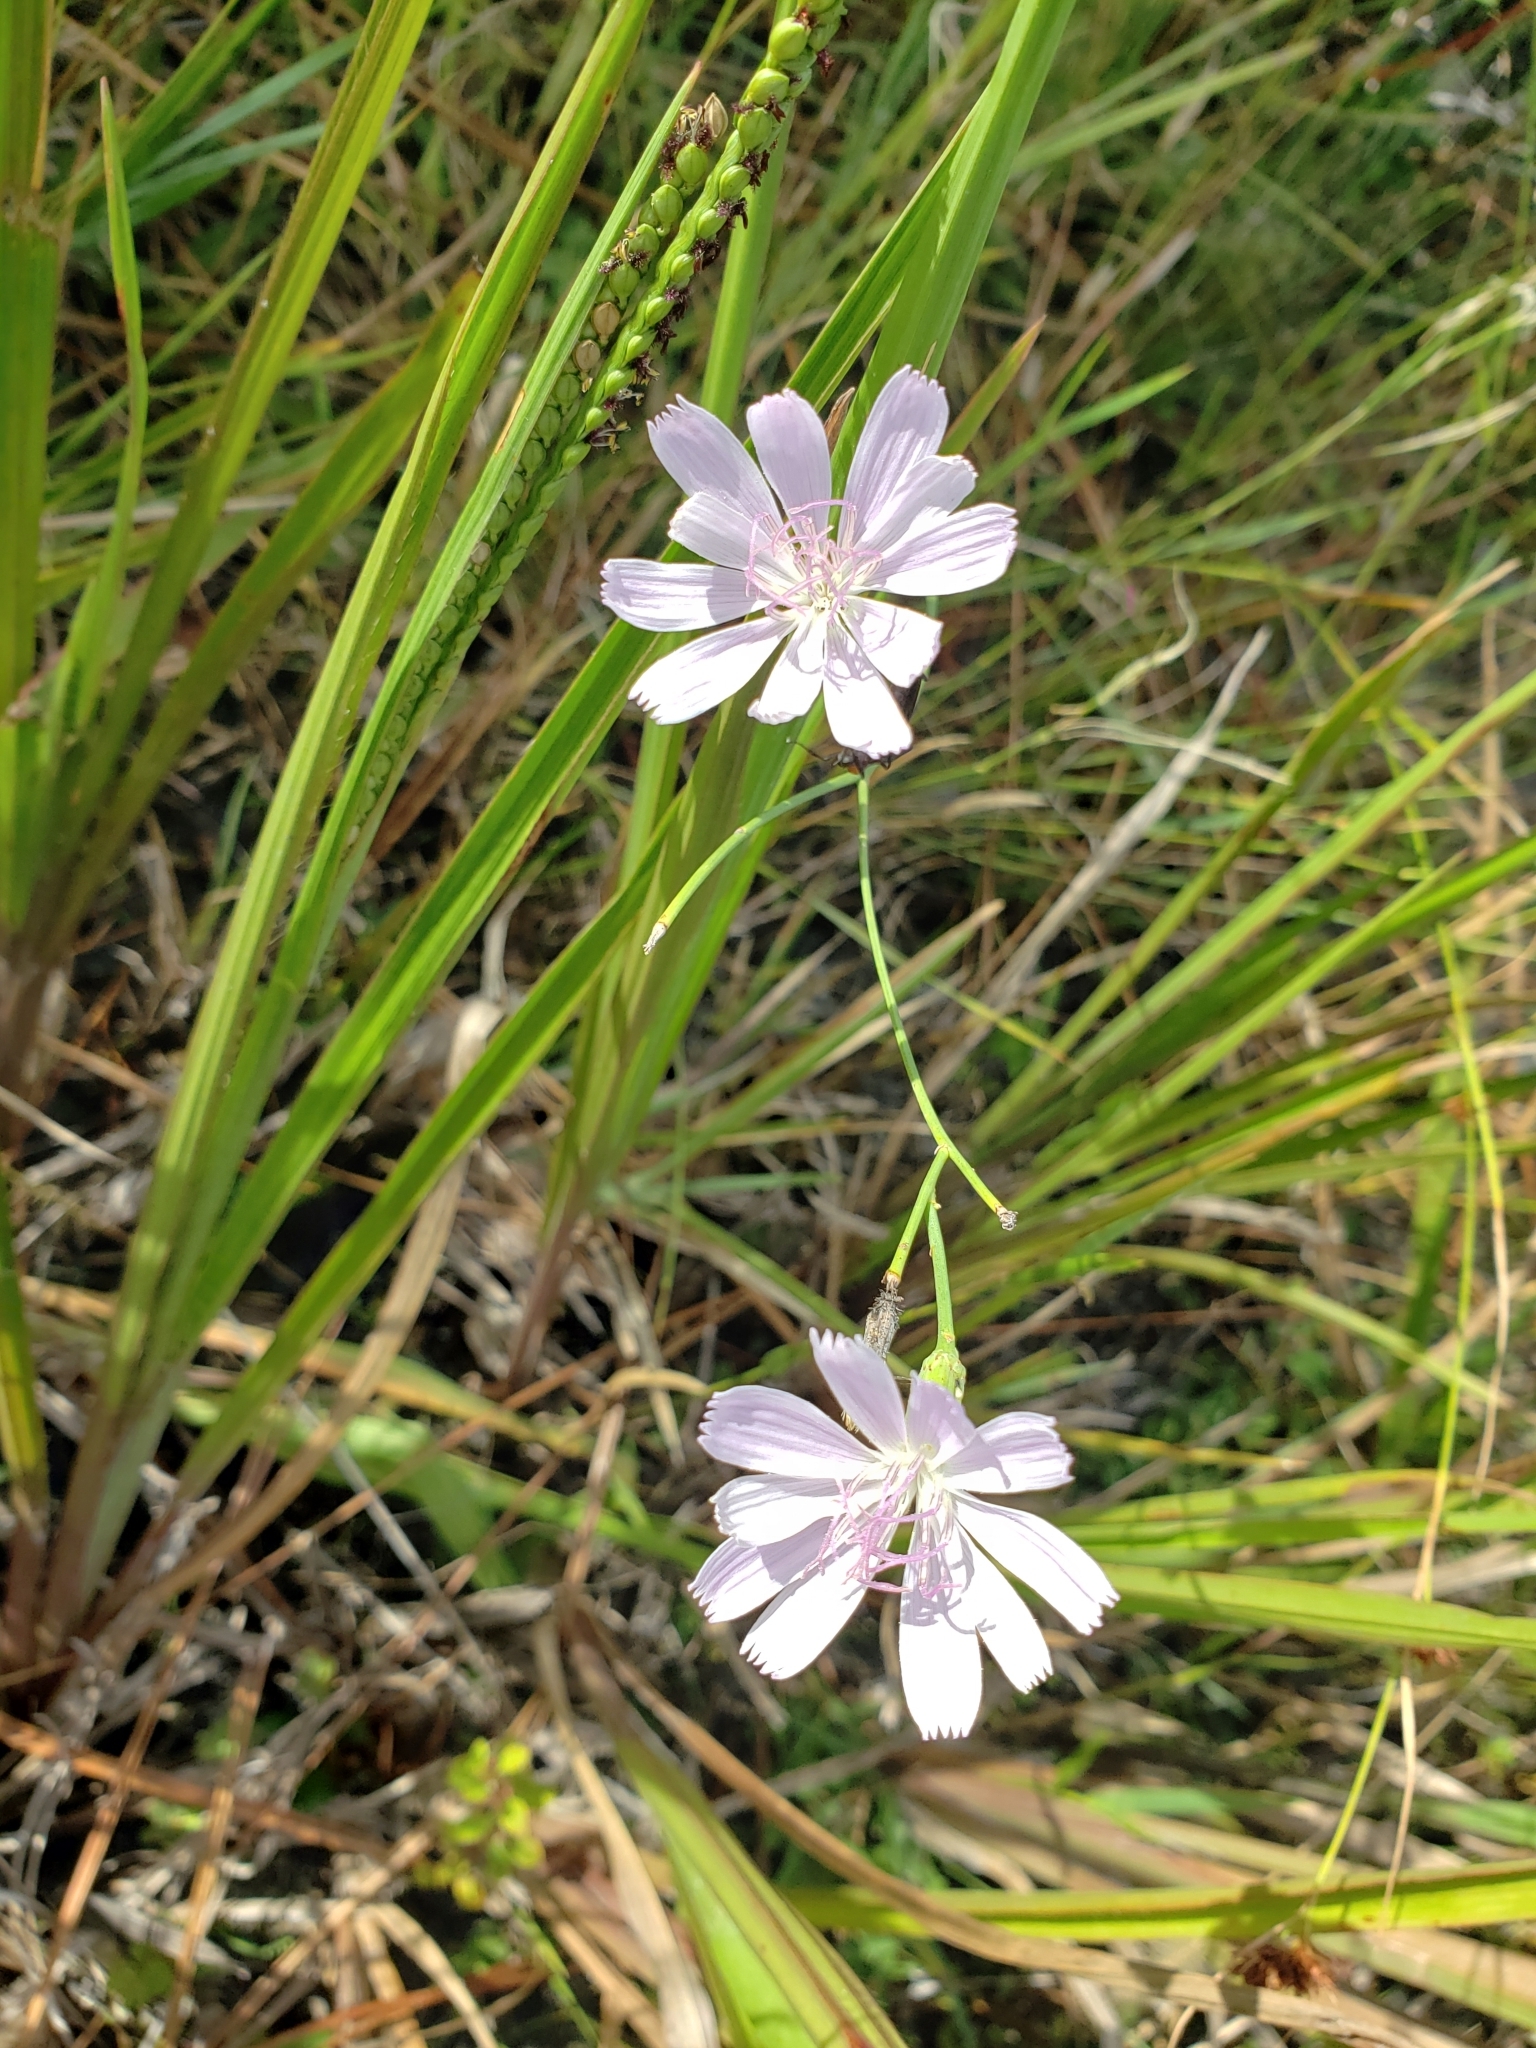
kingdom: Plantae
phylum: Tracheophyta
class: Magnoliopsida
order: Asterales
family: Asteraceae
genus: Lygodesmia
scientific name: Lygodesmia aphylla
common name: Rose-rush
